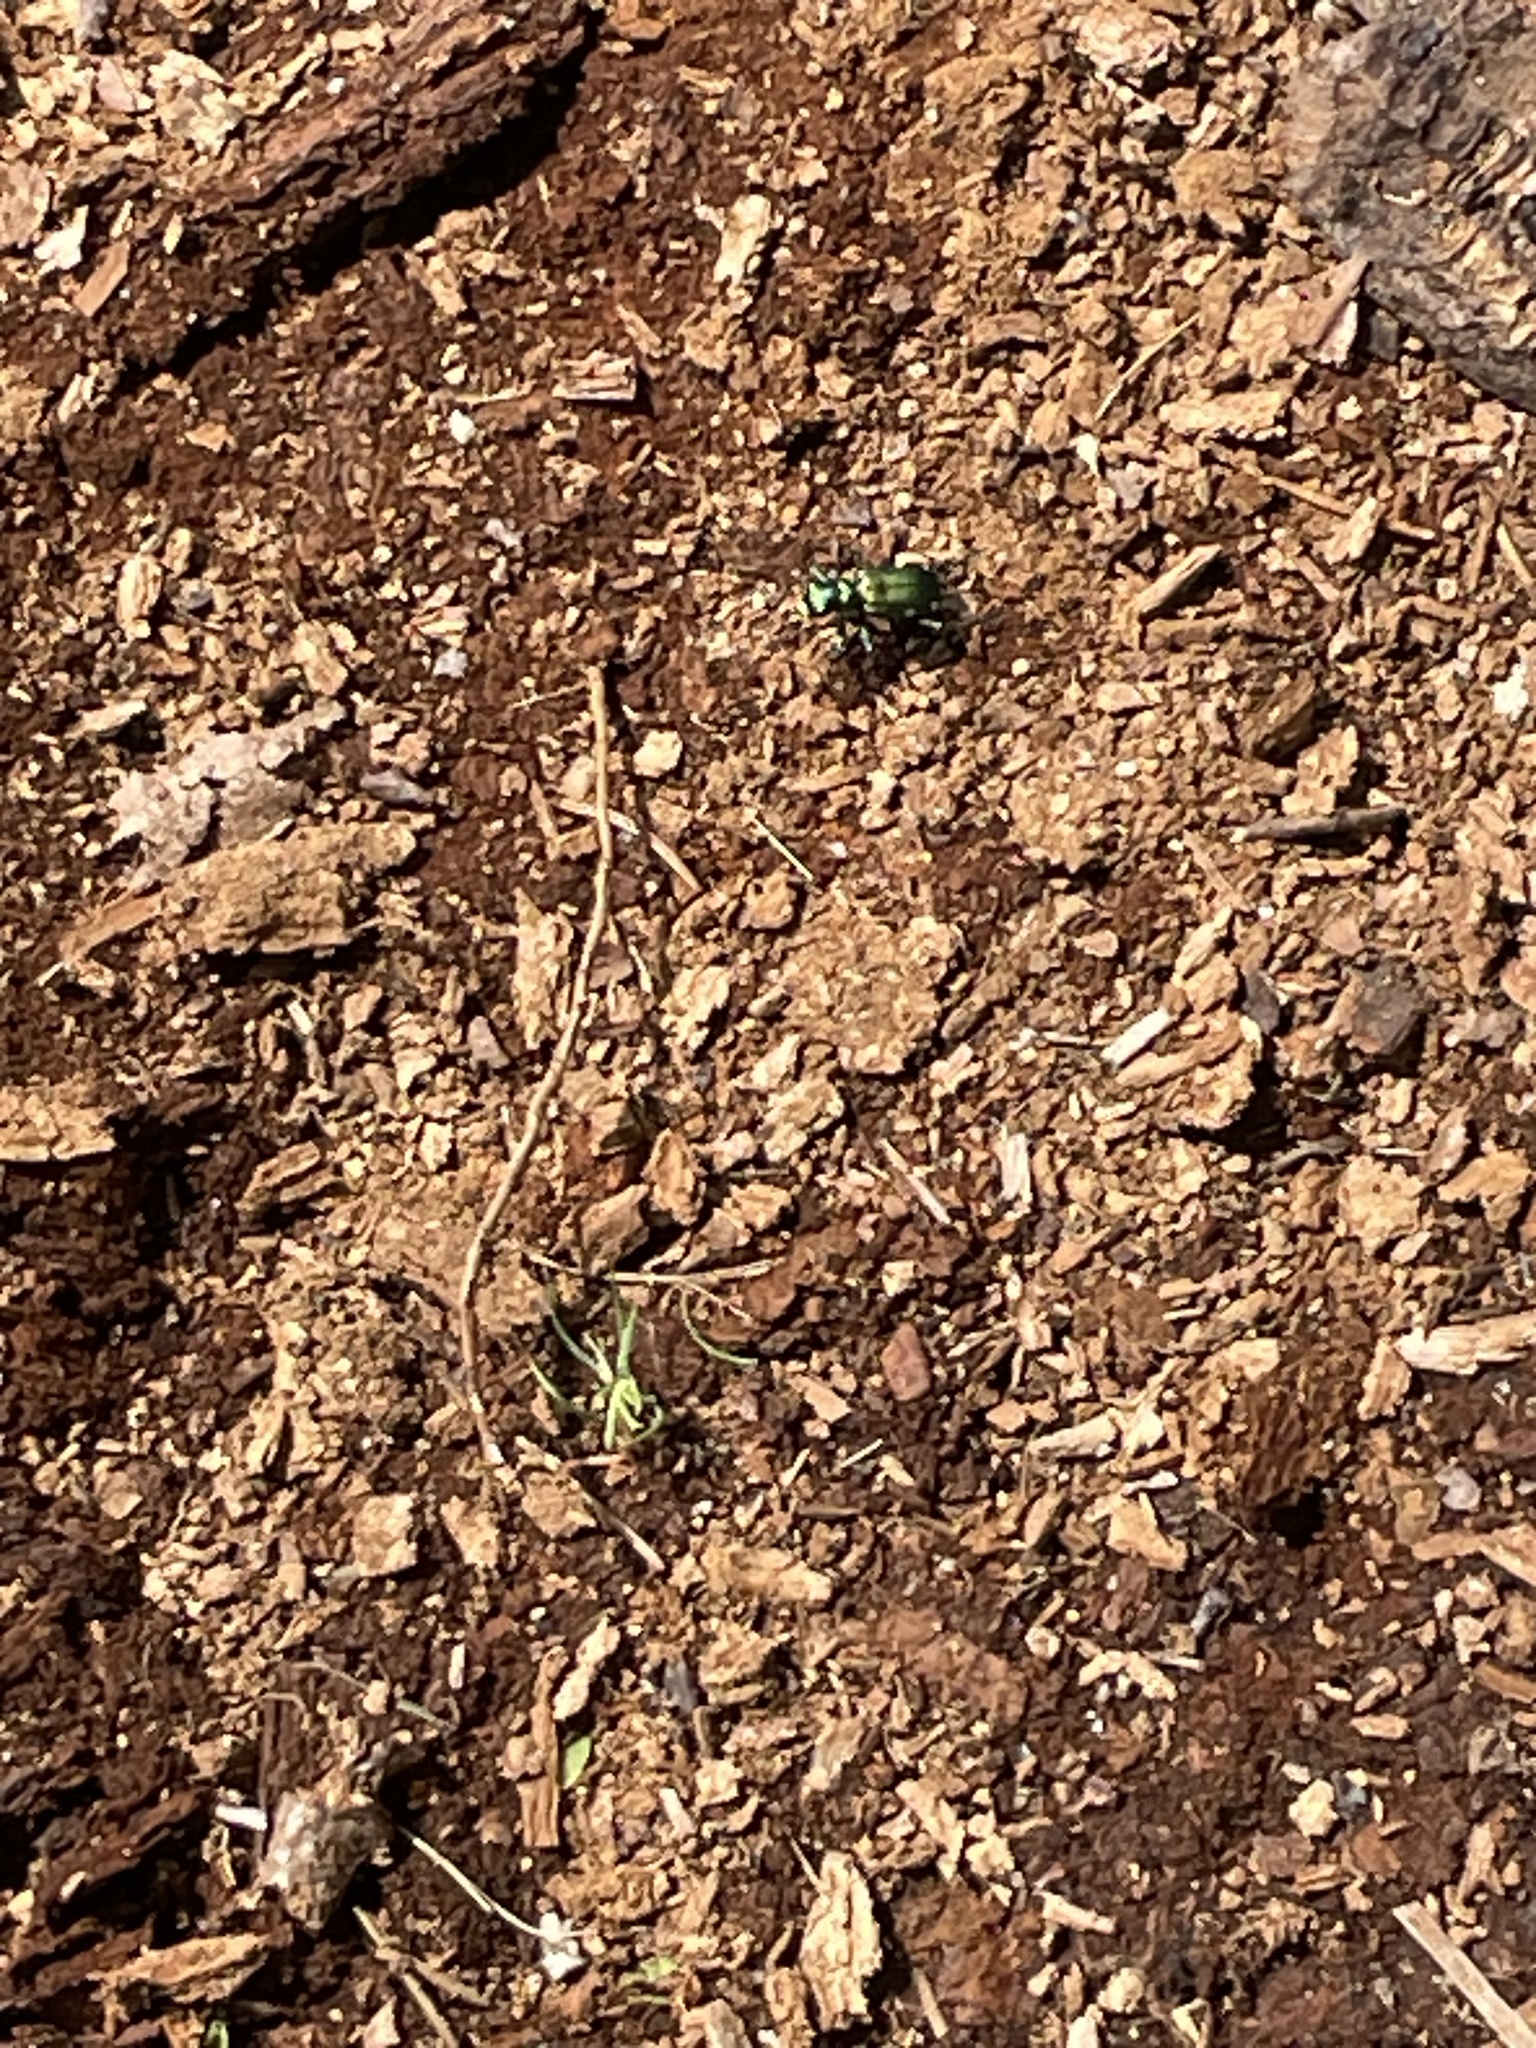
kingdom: Animalia
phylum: Arthropoda
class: Insecta
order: Coleoptera
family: Carabidae
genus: Cicindela
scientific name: Cicindela sexguttata
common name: Six-spotted tiger beetle
